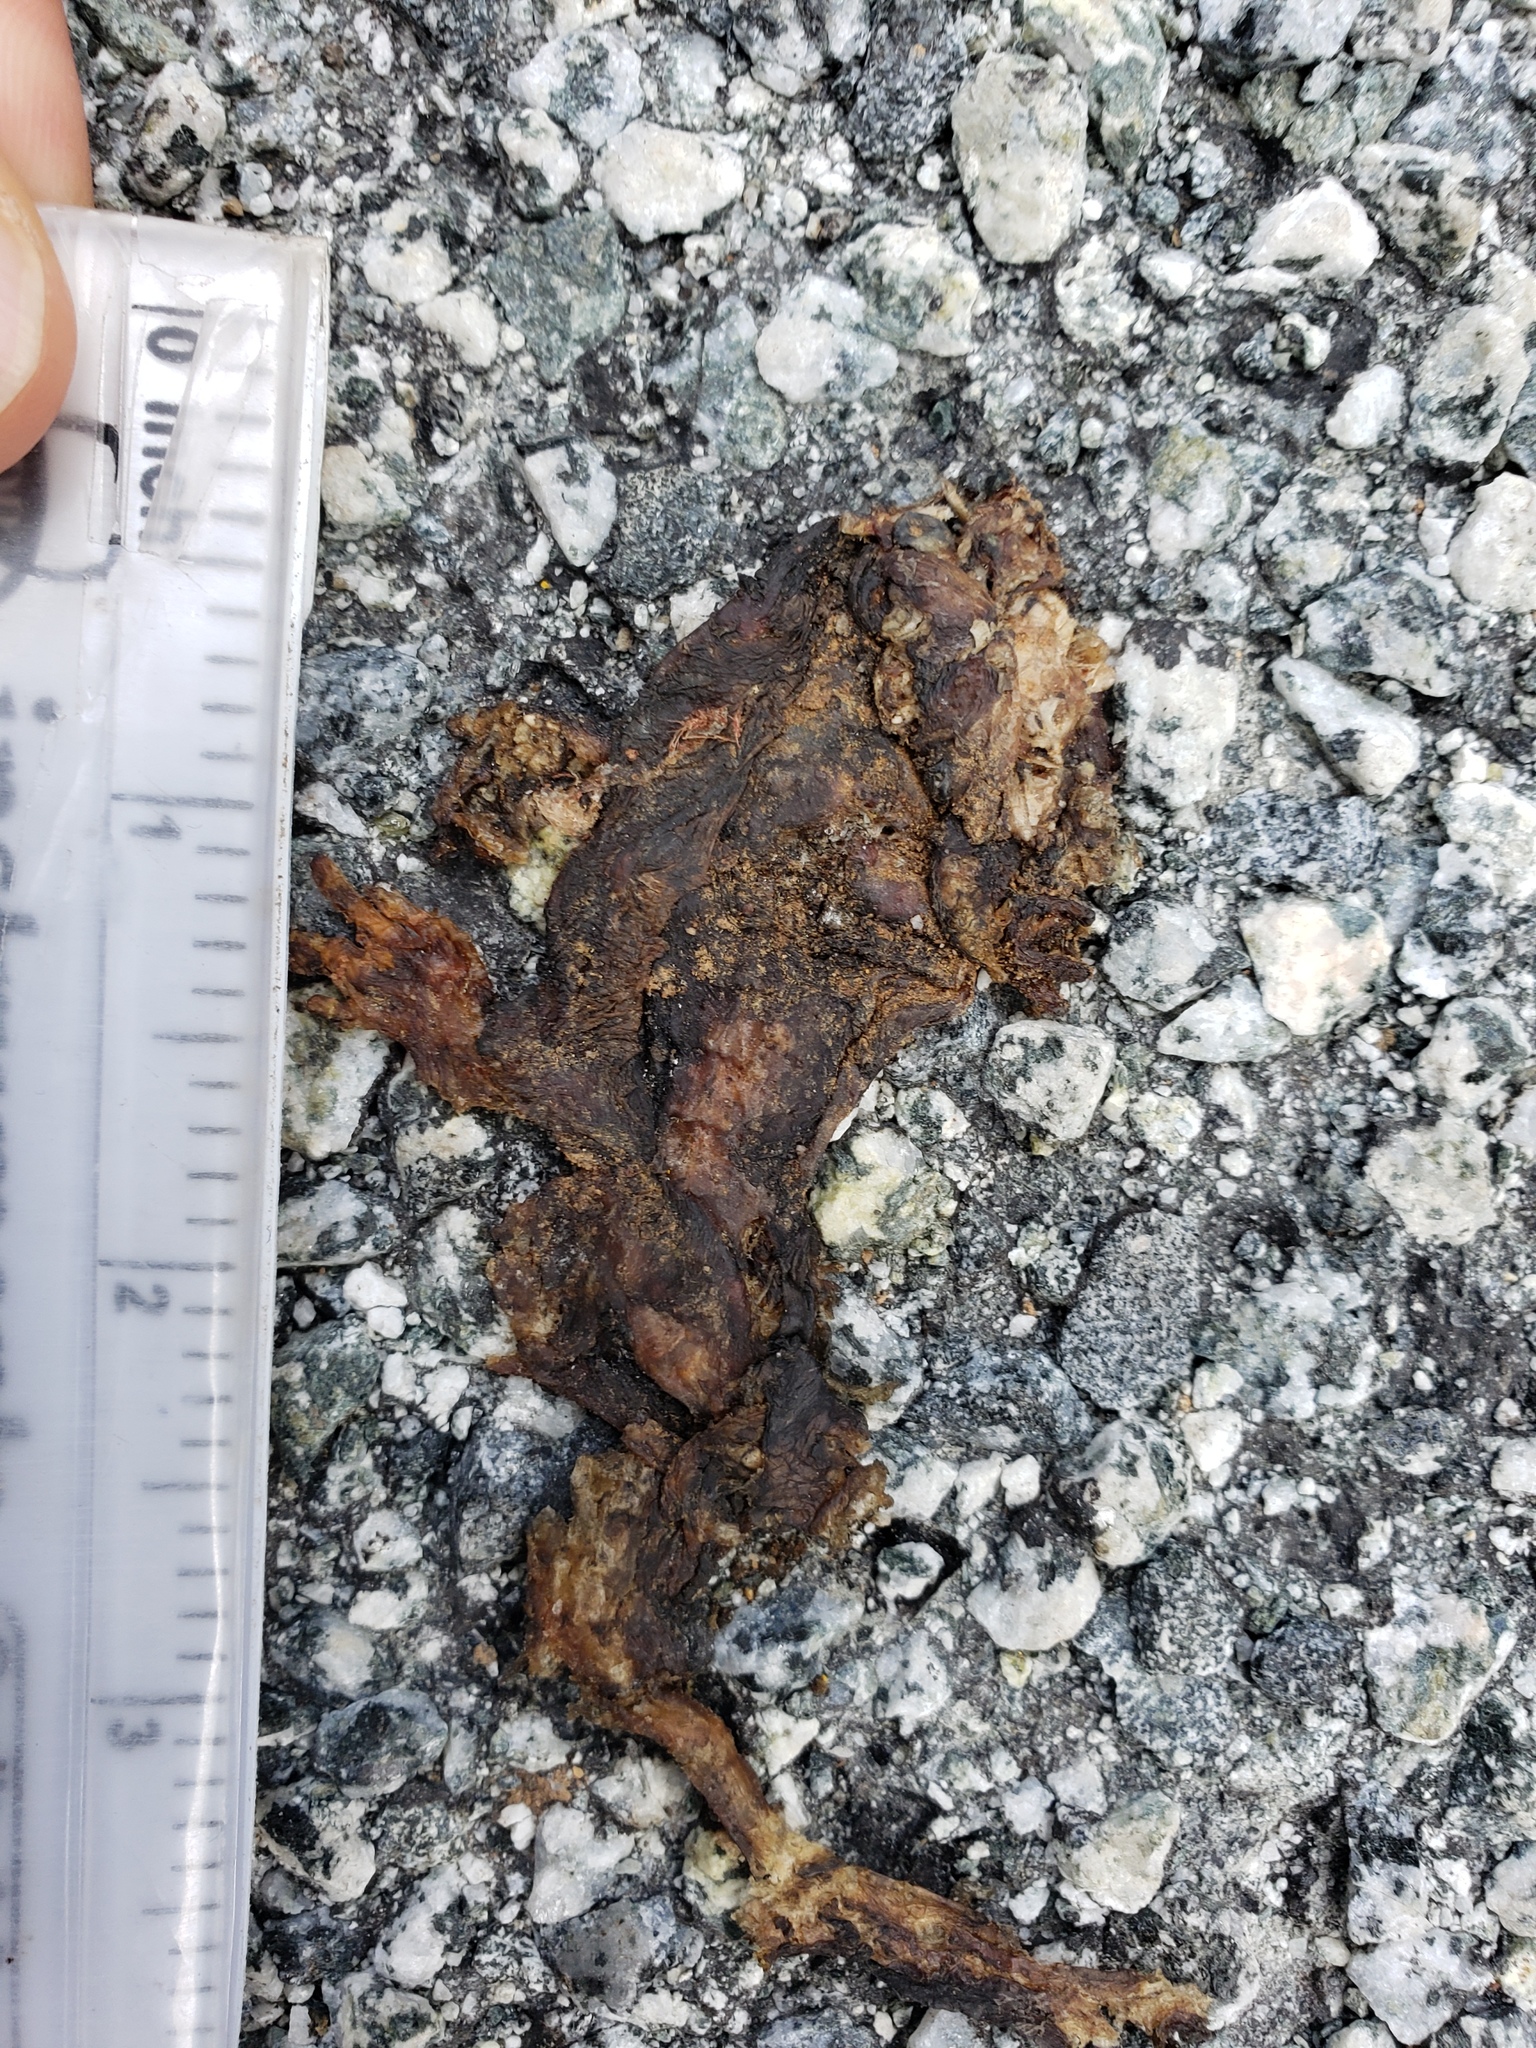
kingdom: Animalia
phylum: Chordata
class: Amphibia
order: Caudata
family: Salamandridae
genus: Taricha
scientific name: Taricha
